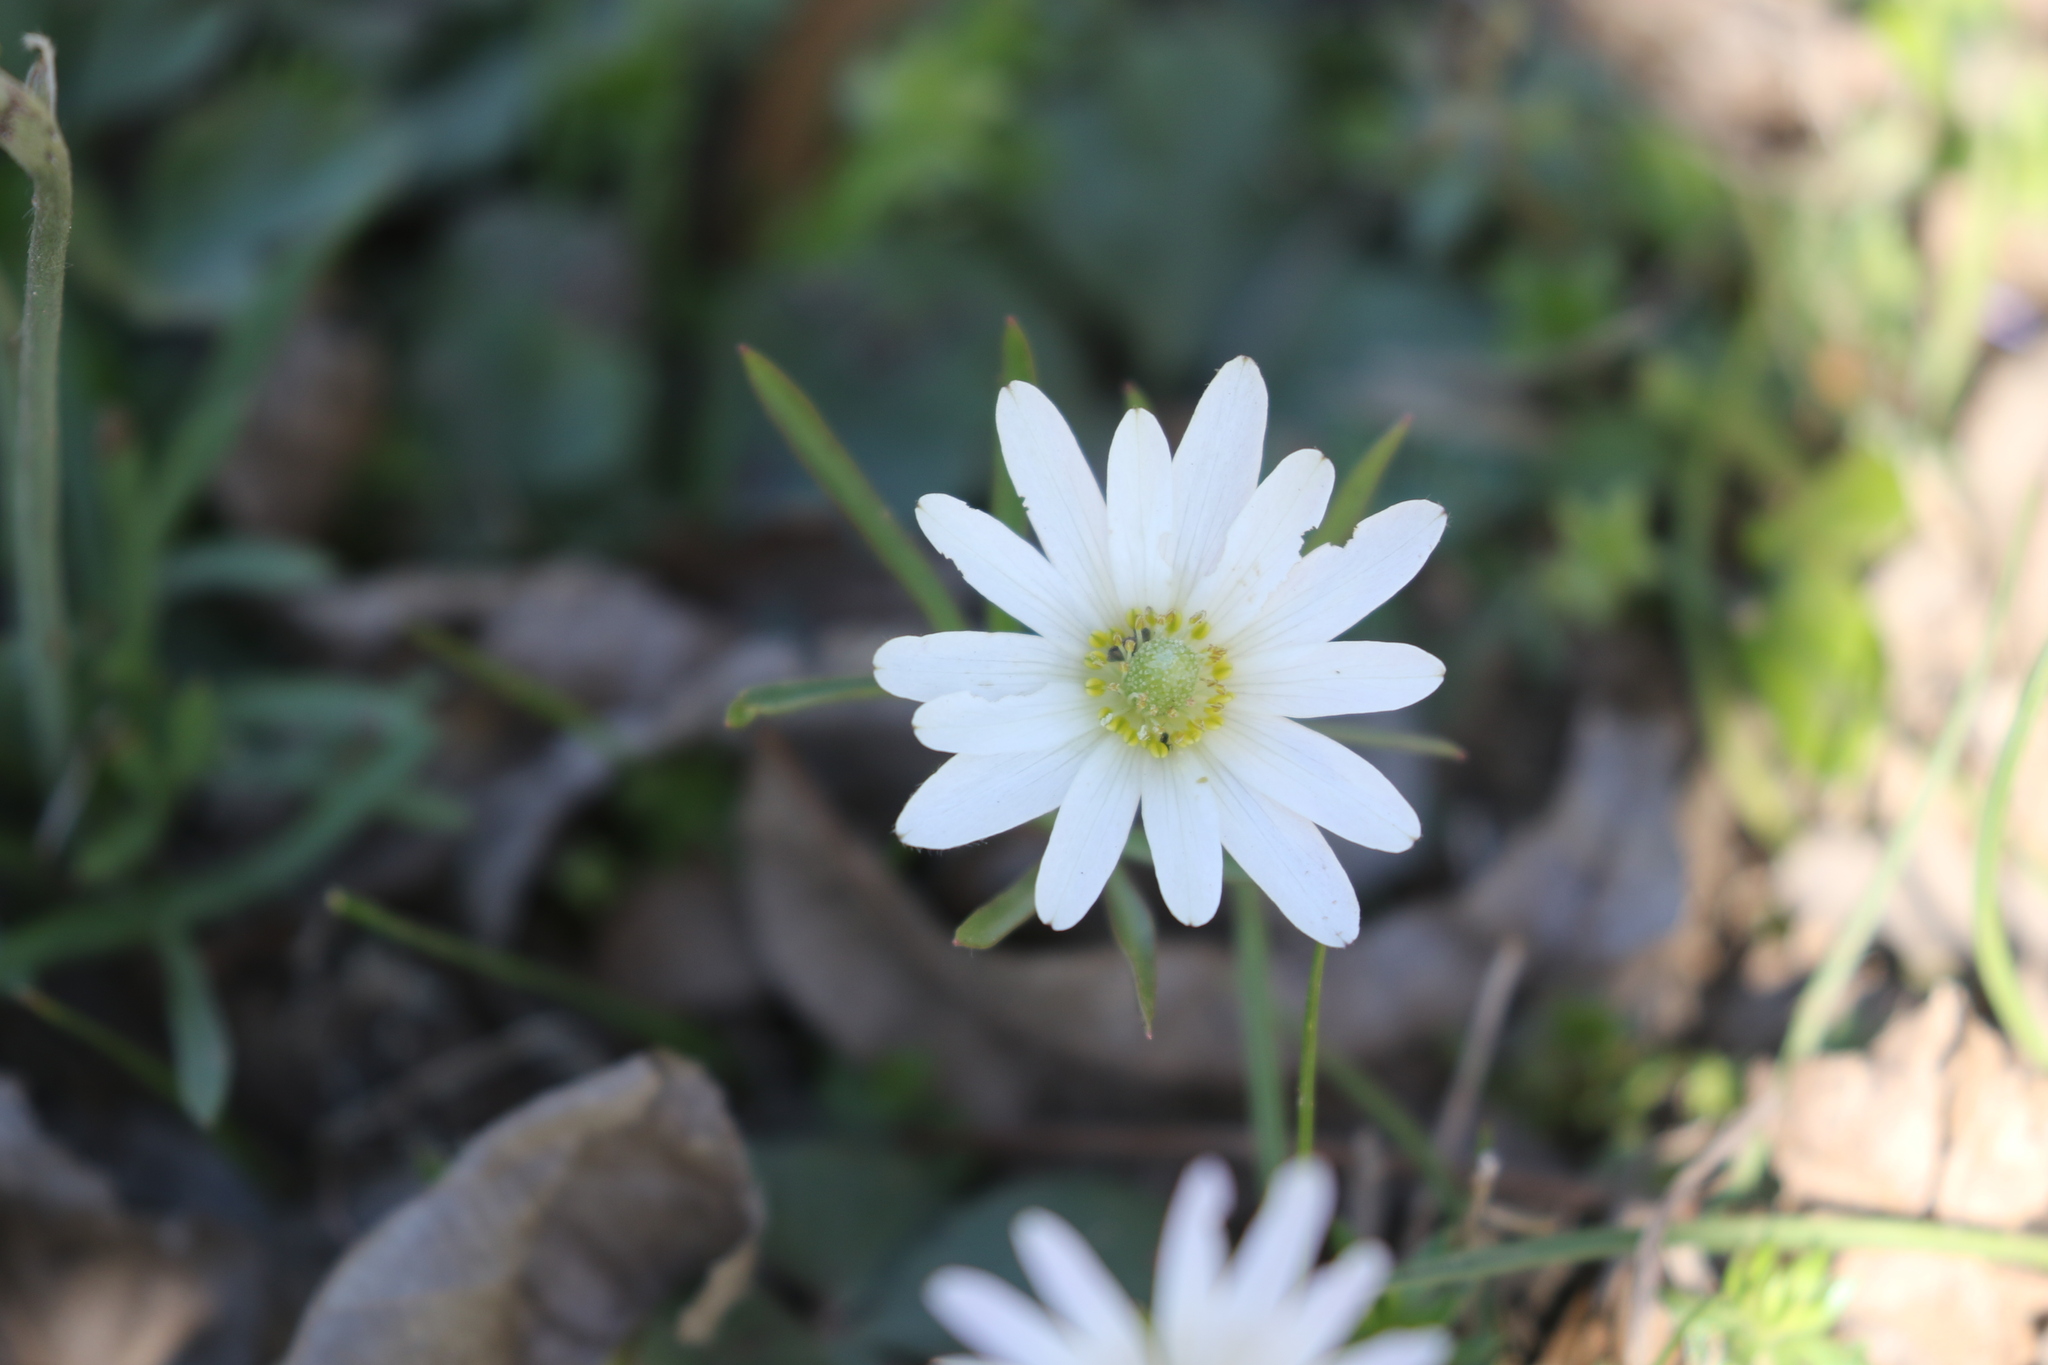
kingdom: Plantae
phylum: Tracheophyta
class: Magnoliopsida
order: Ranunculales
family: Ranunculaceae
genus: Anemone
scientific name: Anemone berlandieri
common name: Ten-petal anemone
